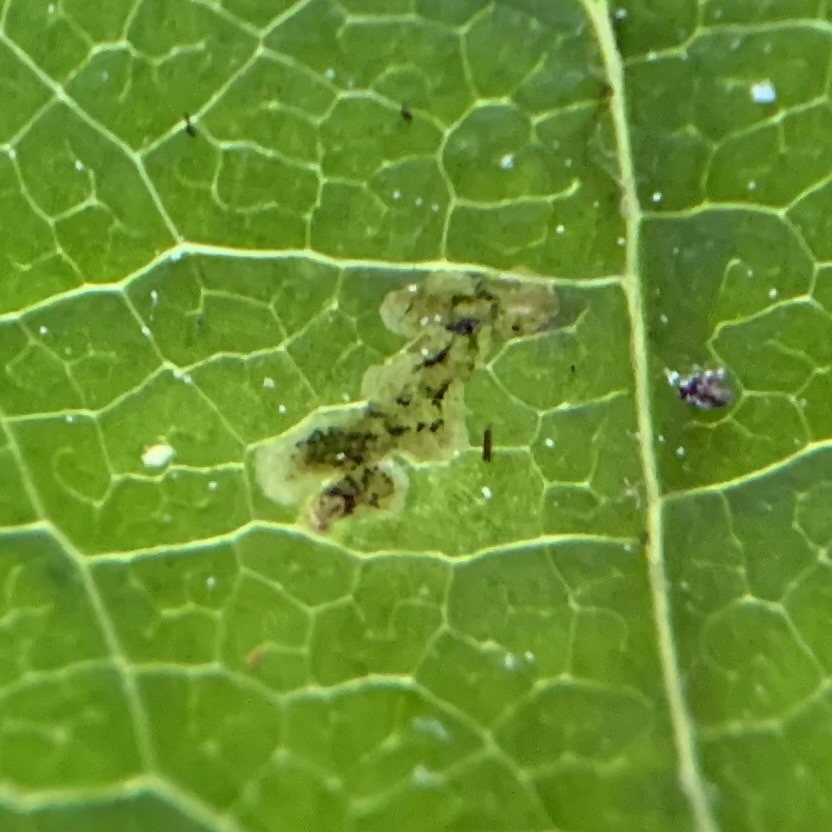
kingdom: Animalia
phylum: Arthropoda
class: Insecta
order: Diptera
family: Agromyzidae
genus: Phytomyza
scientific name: Phytomyza aralivora
